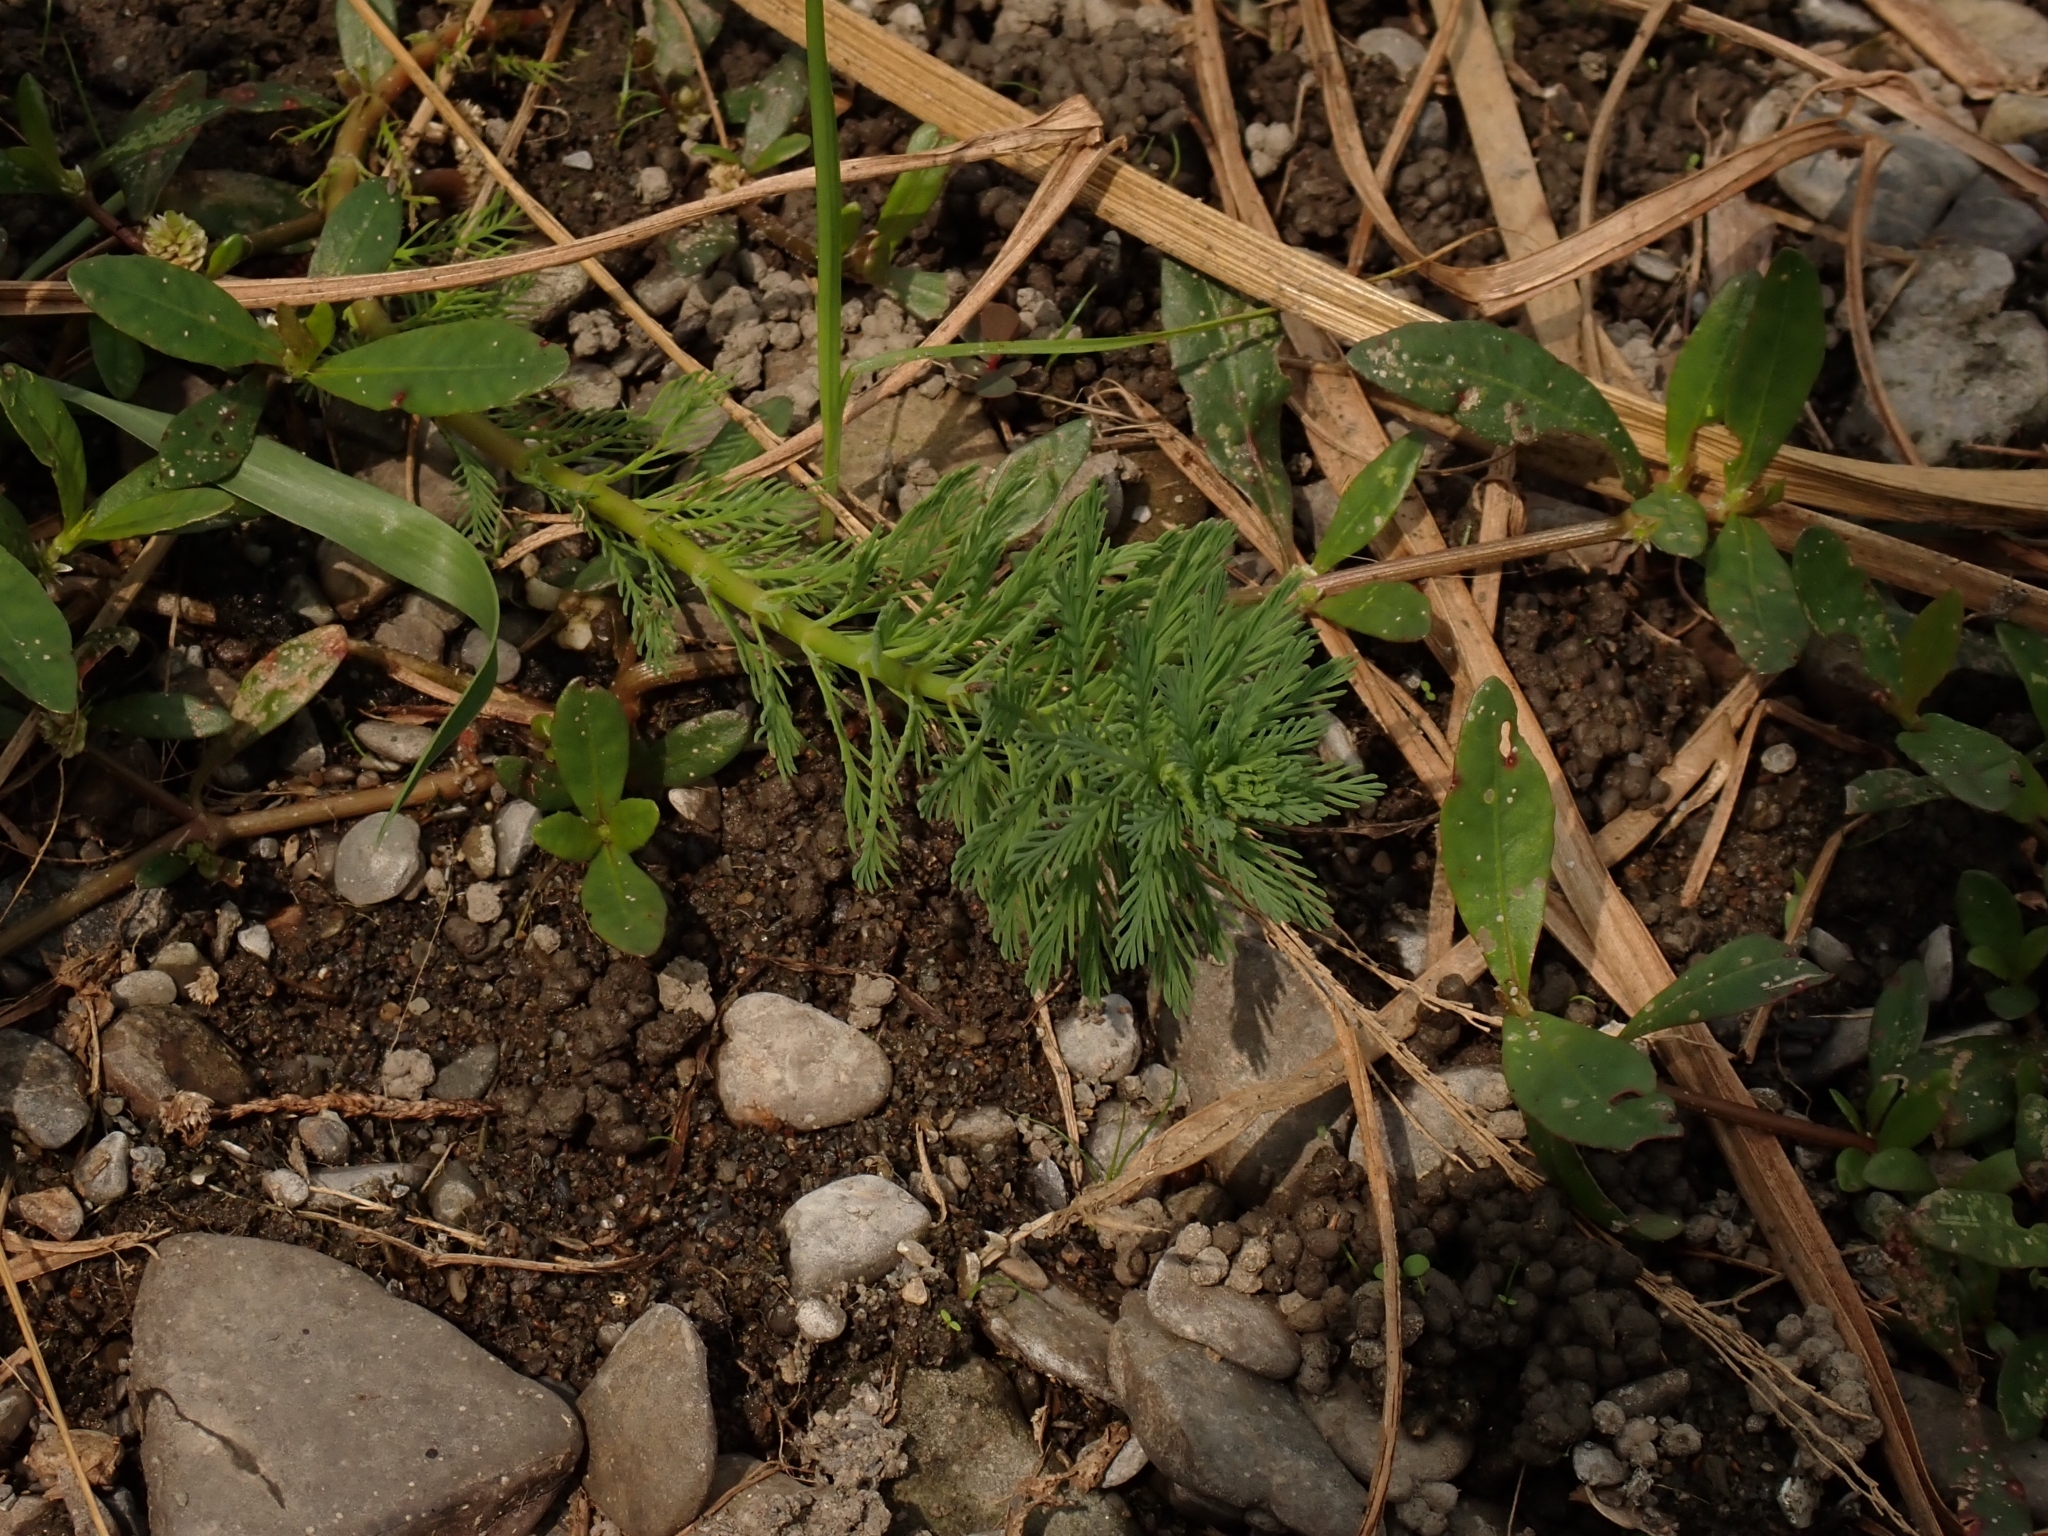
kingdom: Plantae
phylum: Tracheophyta
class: Magnoliopsida
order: Saxifragales
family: Haloragaceae
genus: Myriophyllum
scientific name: Myriophyllum aquaticum
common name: Parrot's feather
